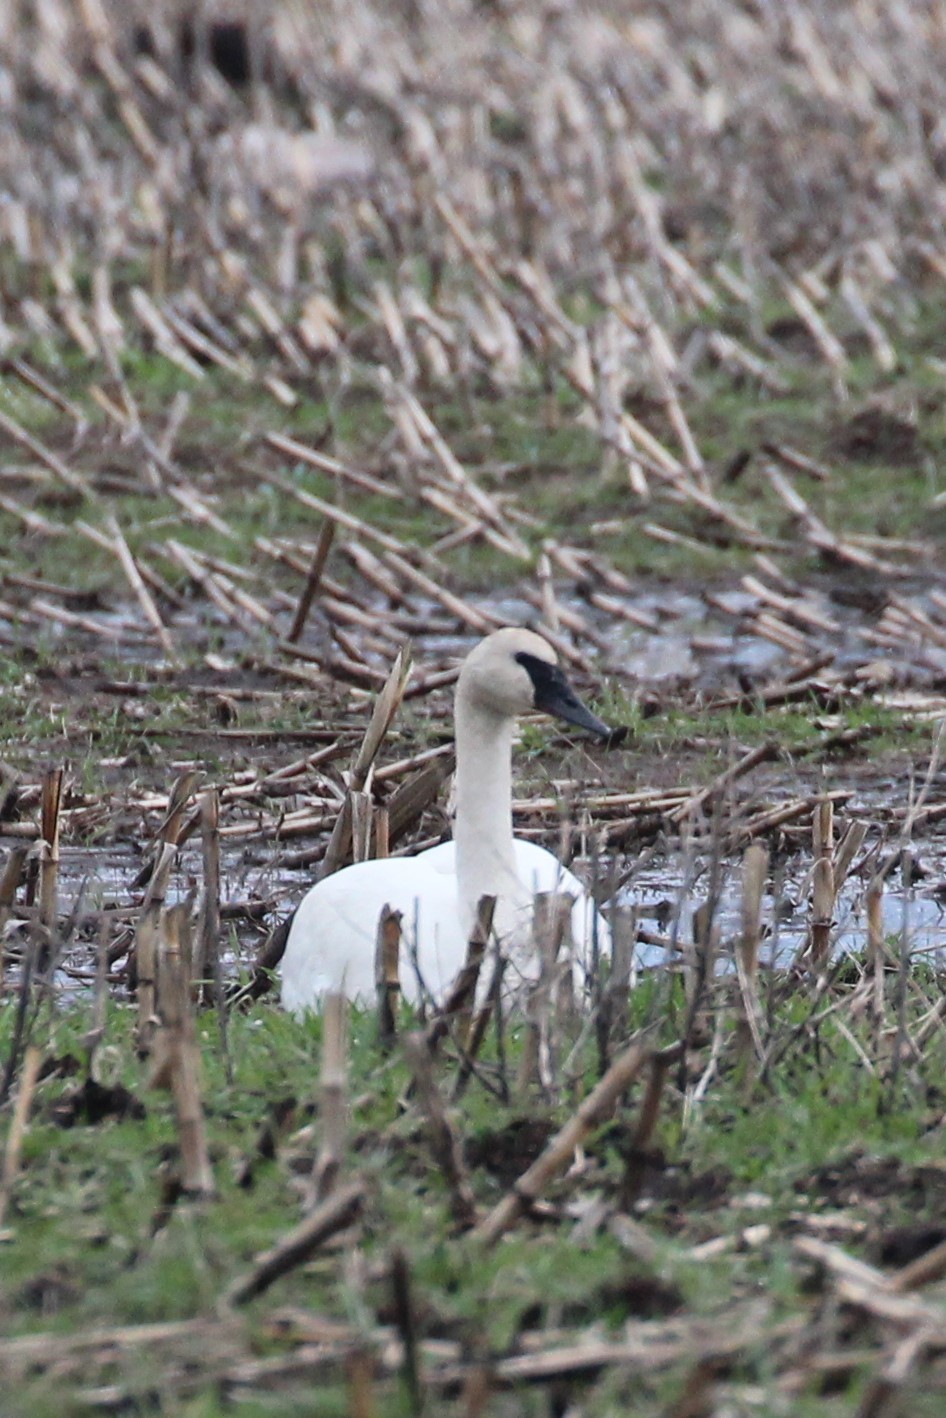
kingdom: Animalia
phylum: Chordata
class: Aves
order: Anseriformes
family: Anatidae
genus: Cygnus
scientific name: Cygnus buccinator
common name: Trumpeter swan
